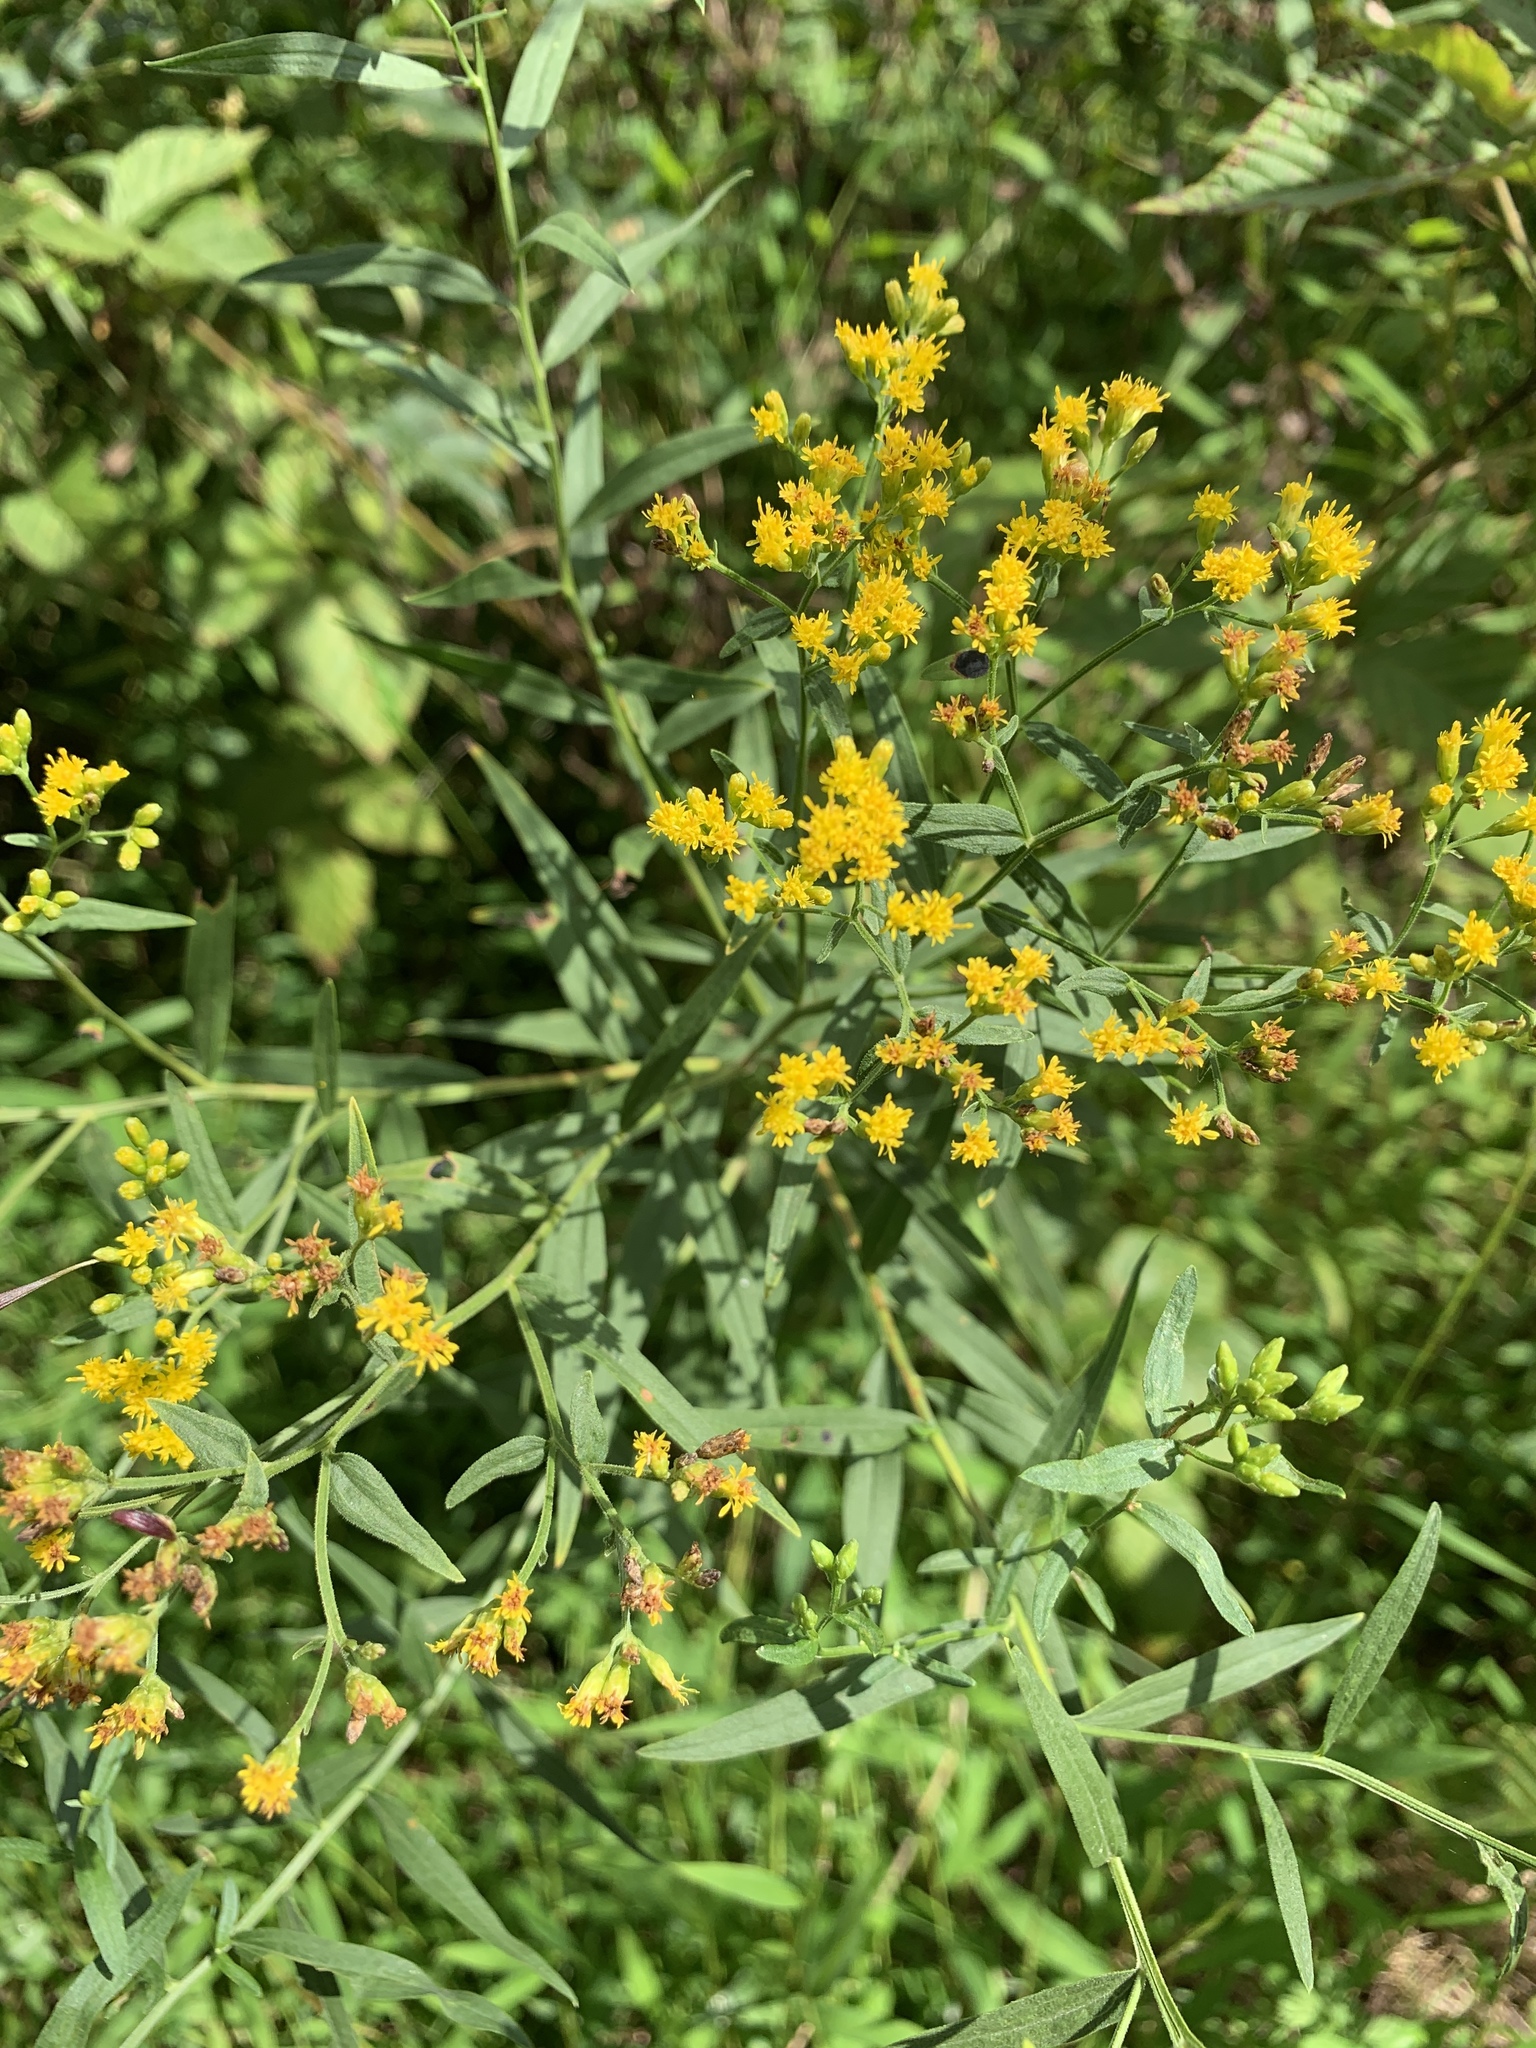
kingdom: Plantae
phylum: Tracheophyta
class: Magnoliopsida
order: Asterales
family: Asteraceae
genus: Euthamia
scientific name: Euthamia graminifolia
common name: Common goldentop
